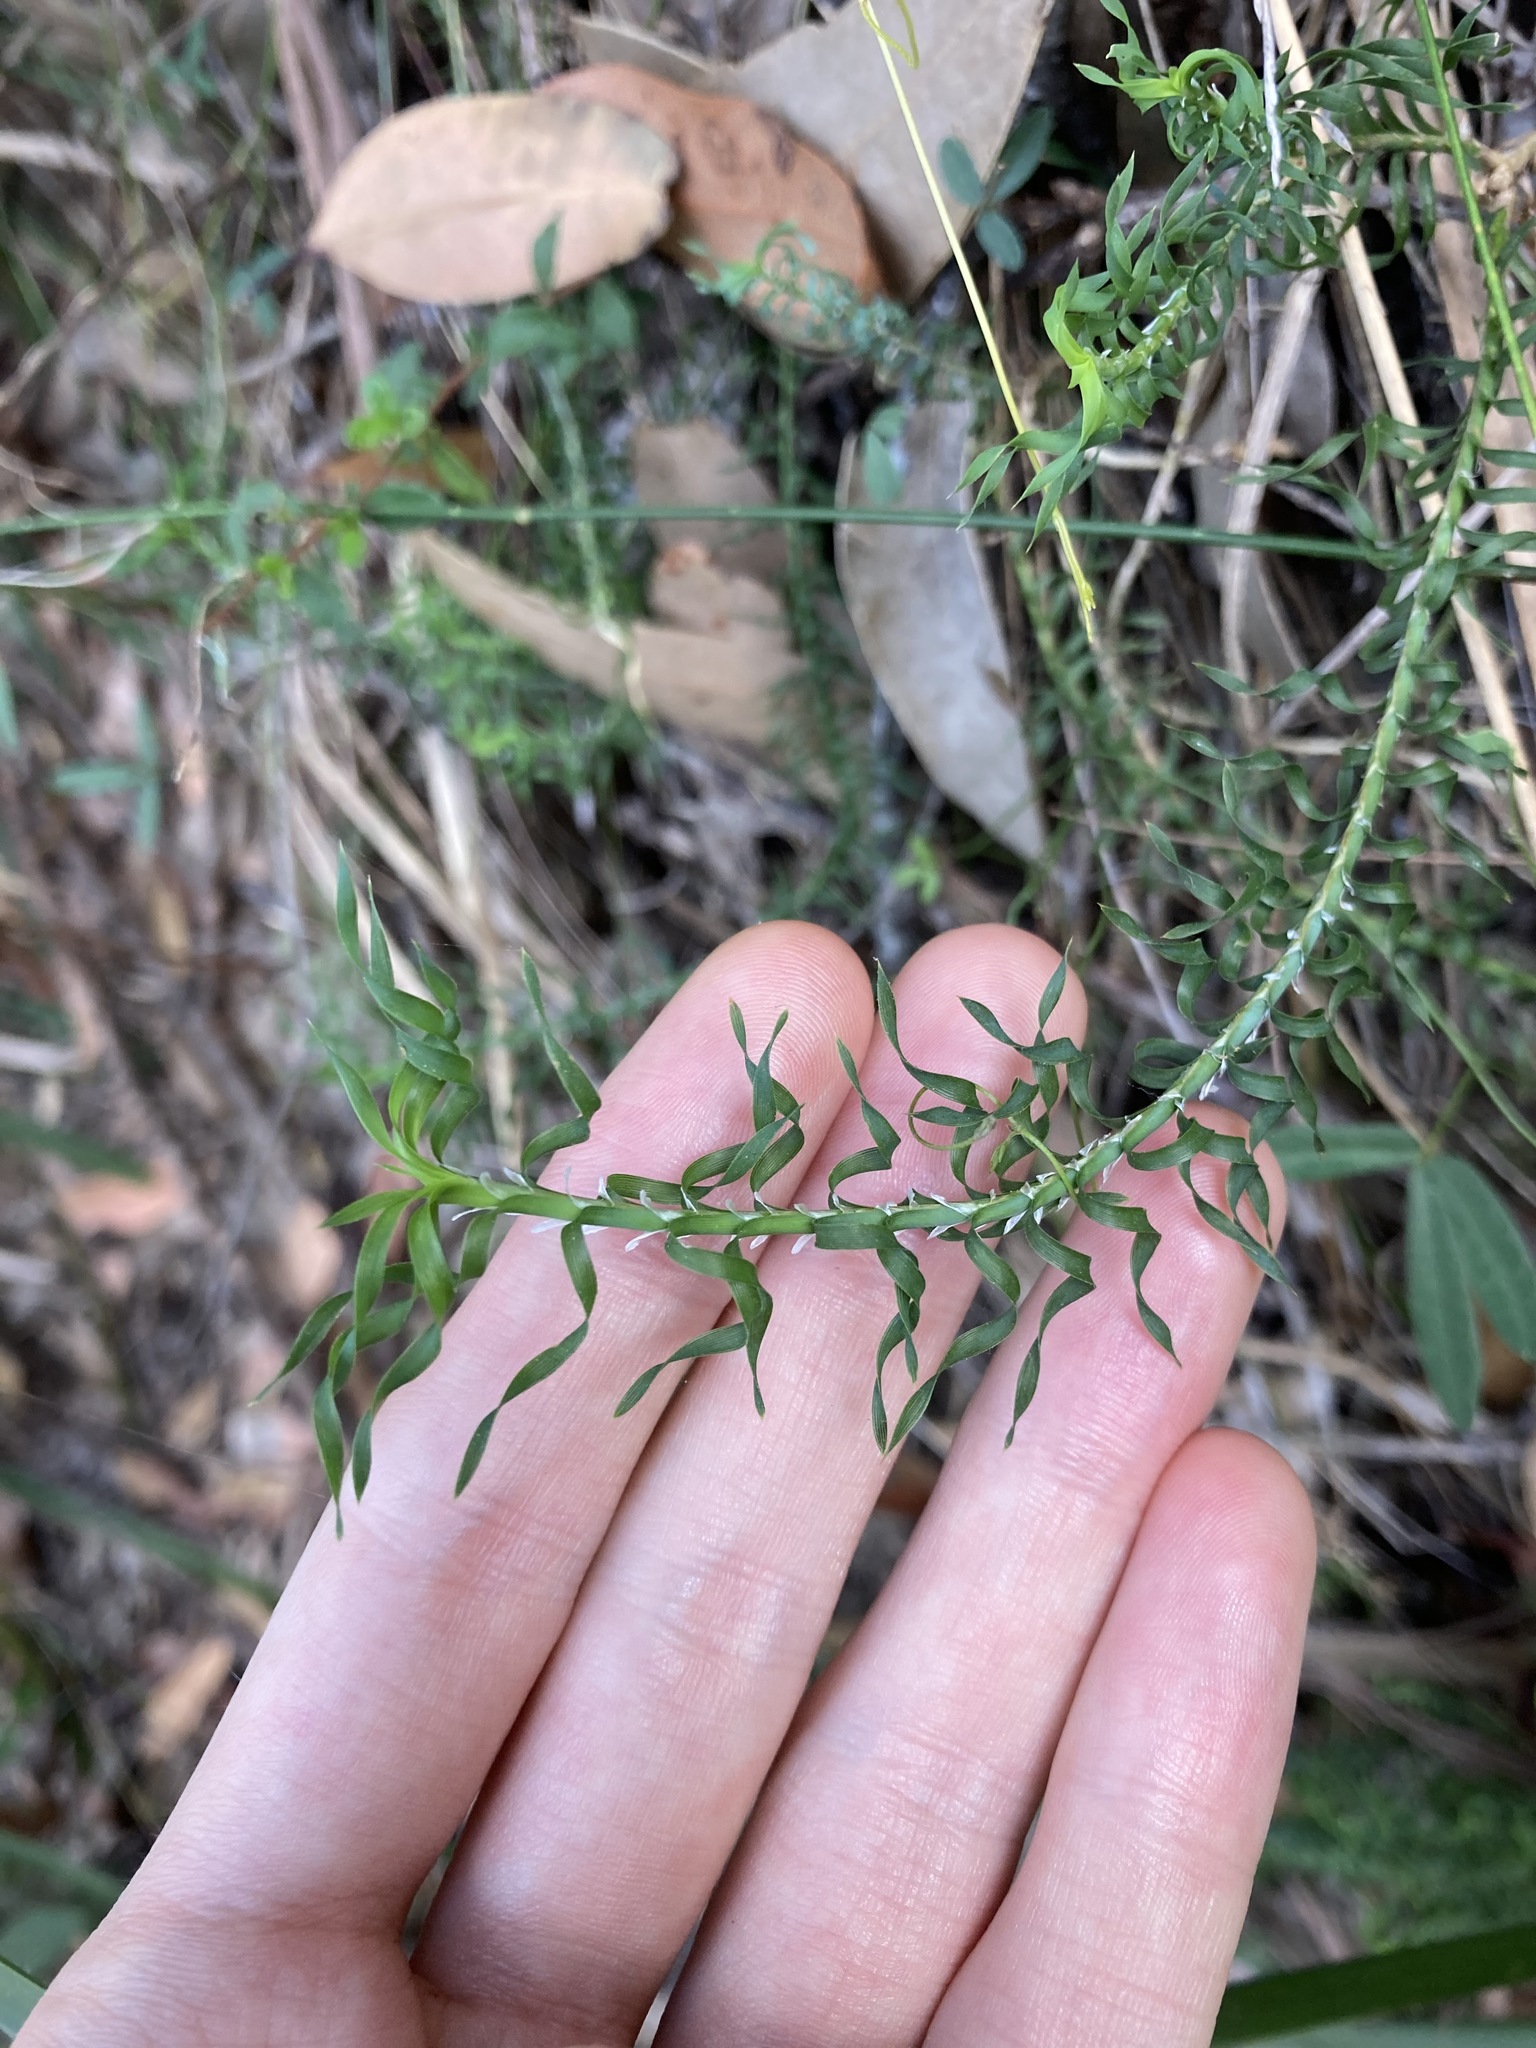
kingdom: Plantae
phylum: Tracheophyta
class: Liliopsida
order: Asparagales
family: Asparagaceae
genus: Lomandra
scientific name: Lomandra obliqua
